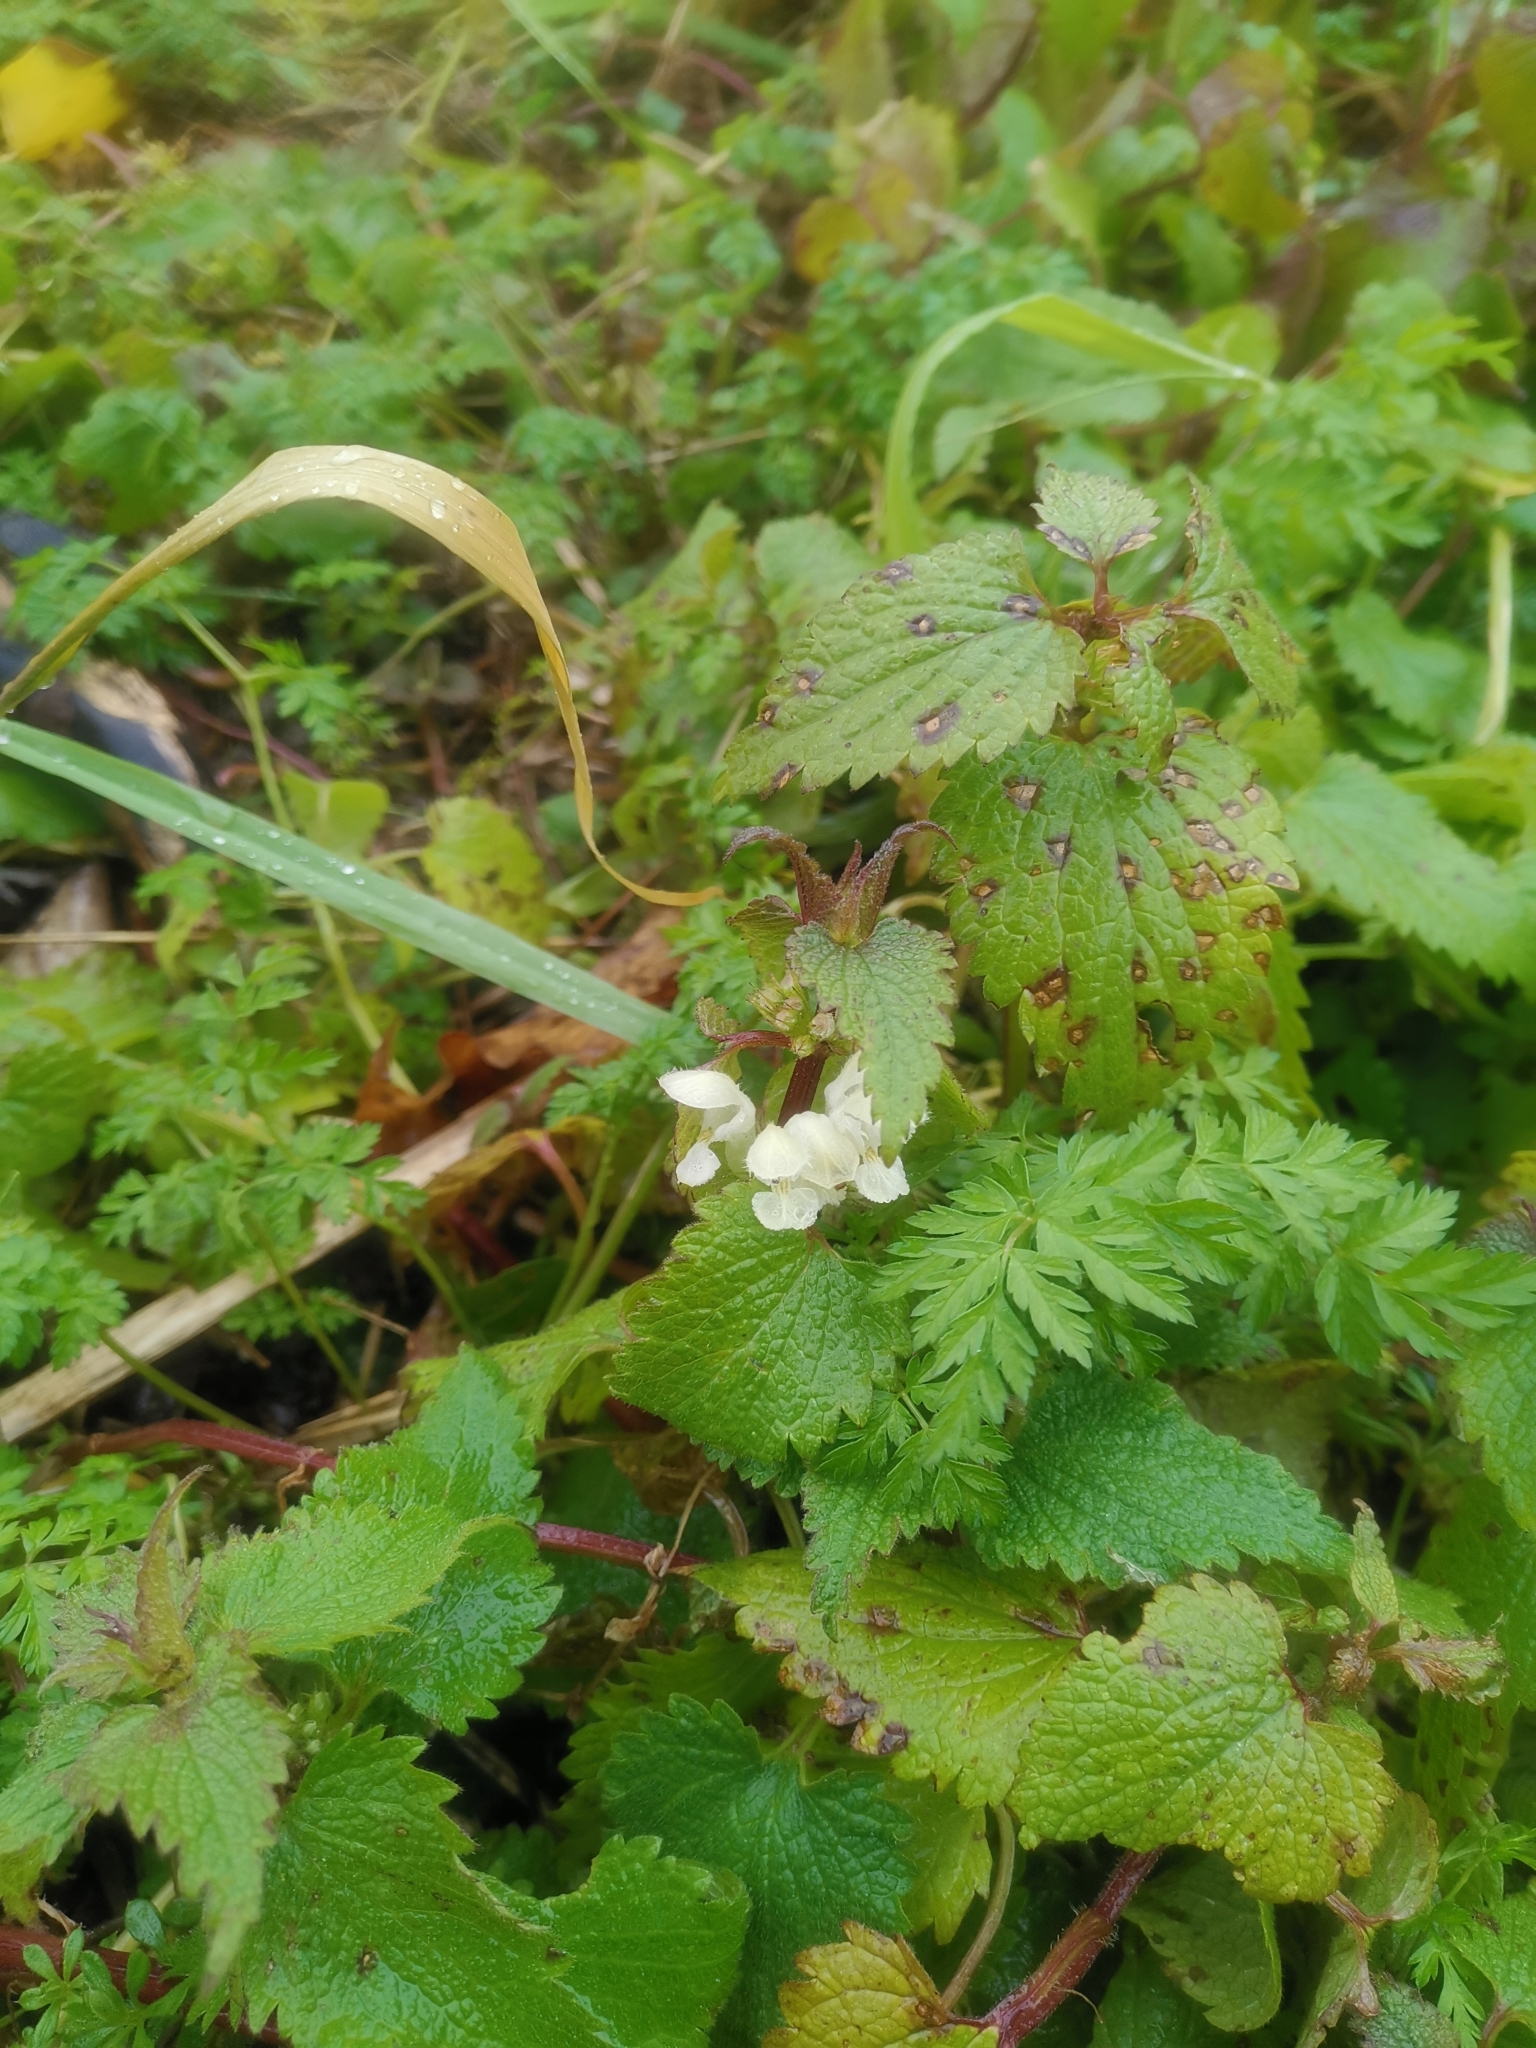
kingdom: Plantae
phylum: Tracheophyta
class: Magnoliopsida
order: Lamiales
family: Lamiaceae
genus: Lamium
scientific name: Lamium album
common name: White dead-nettle
